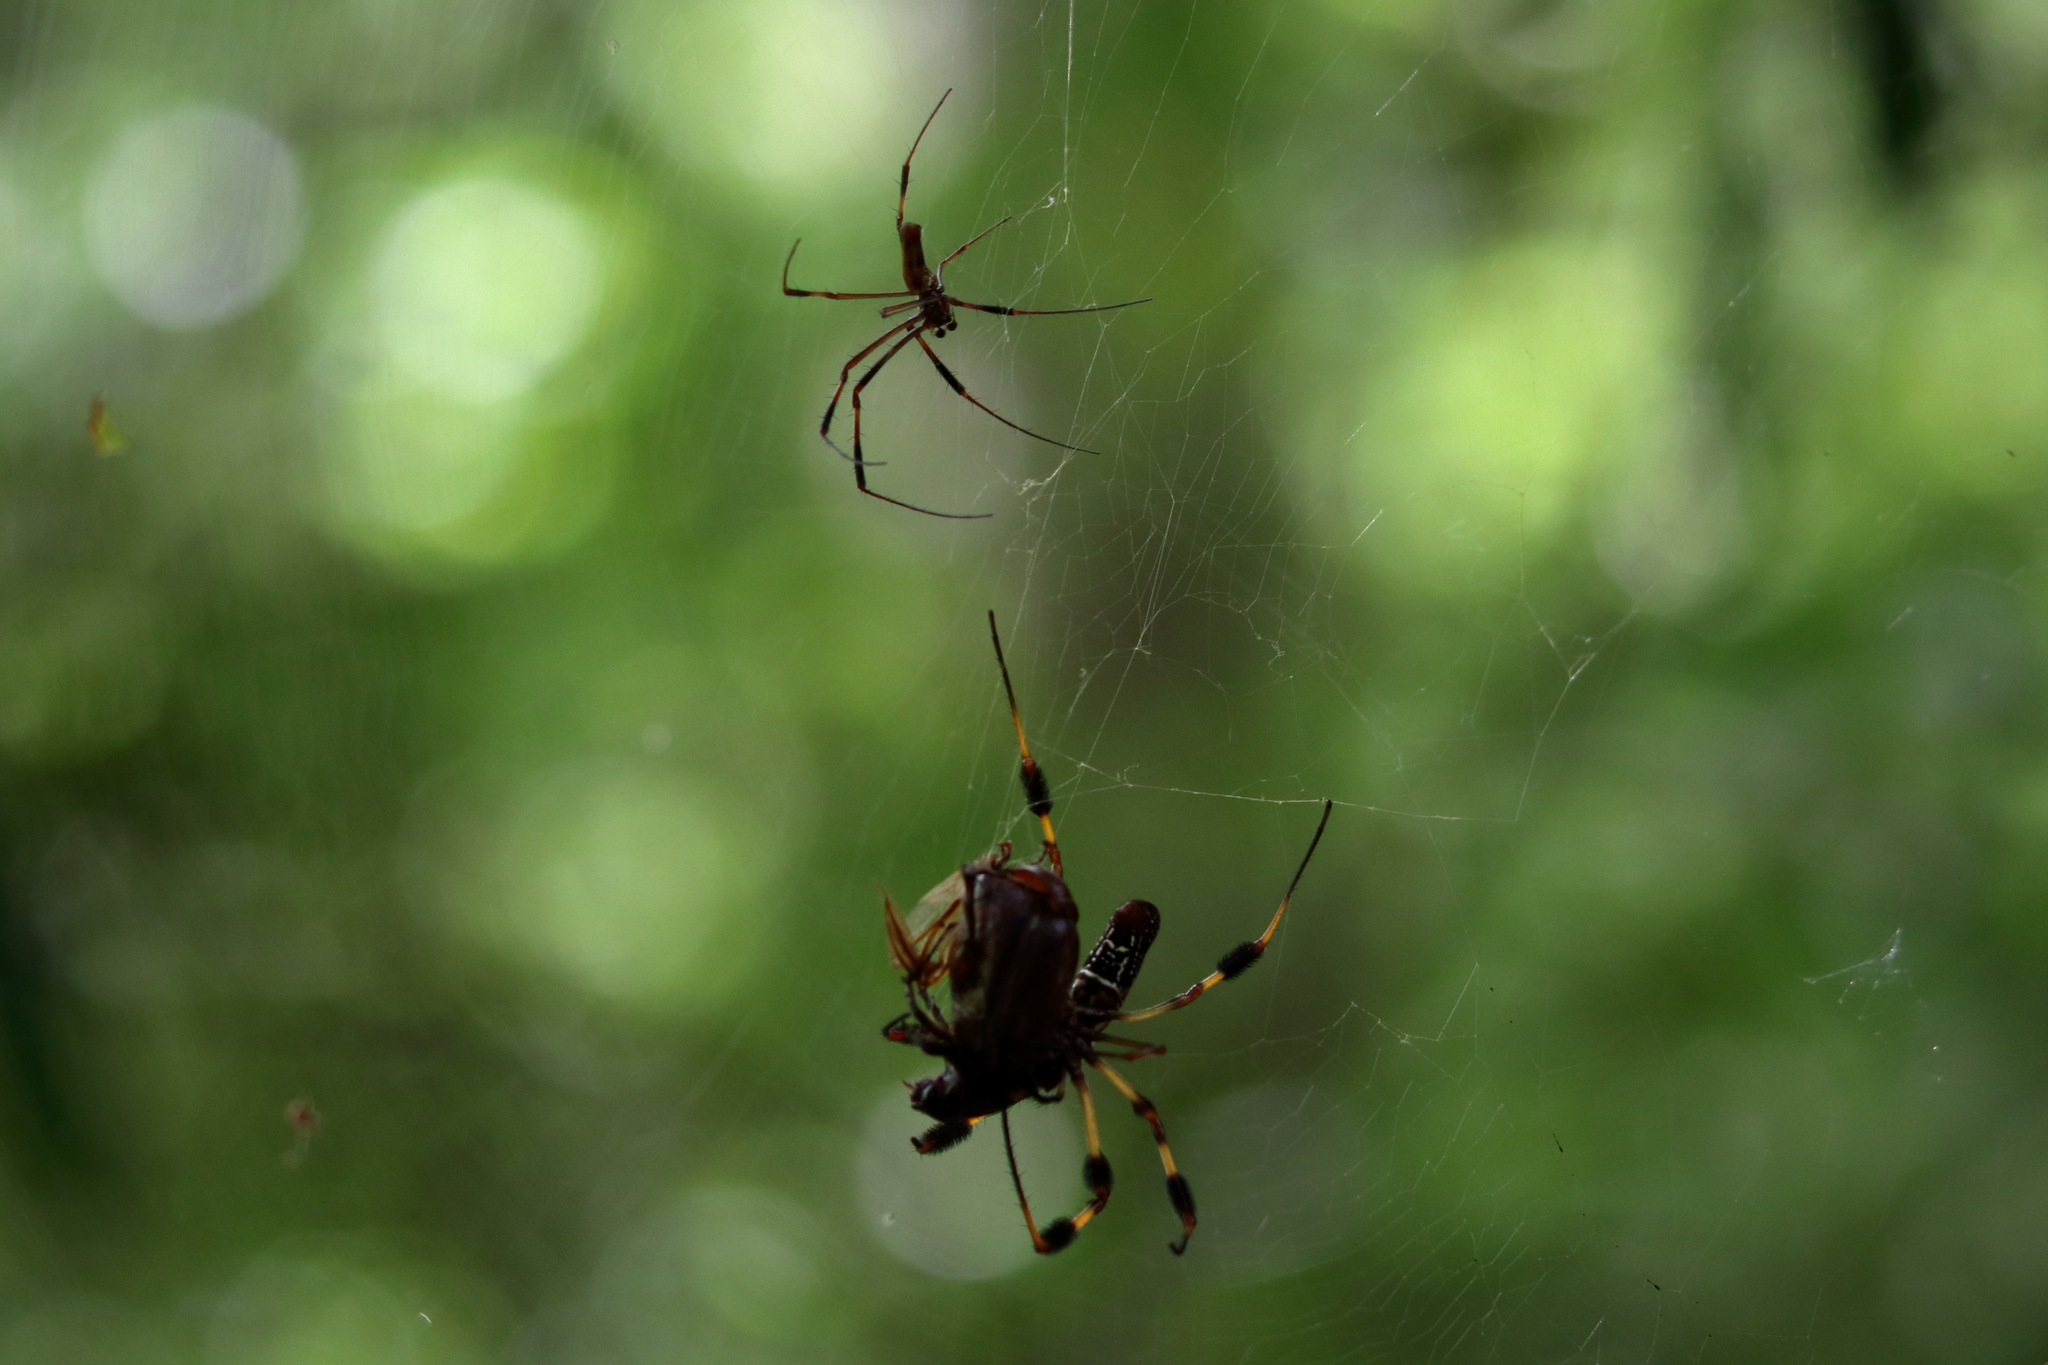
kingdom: Animalia
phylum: Arthropoda
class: Arachnida
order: Araneae
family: Araneidae
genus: Trichonephila
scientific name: Trichonephila clavipes
